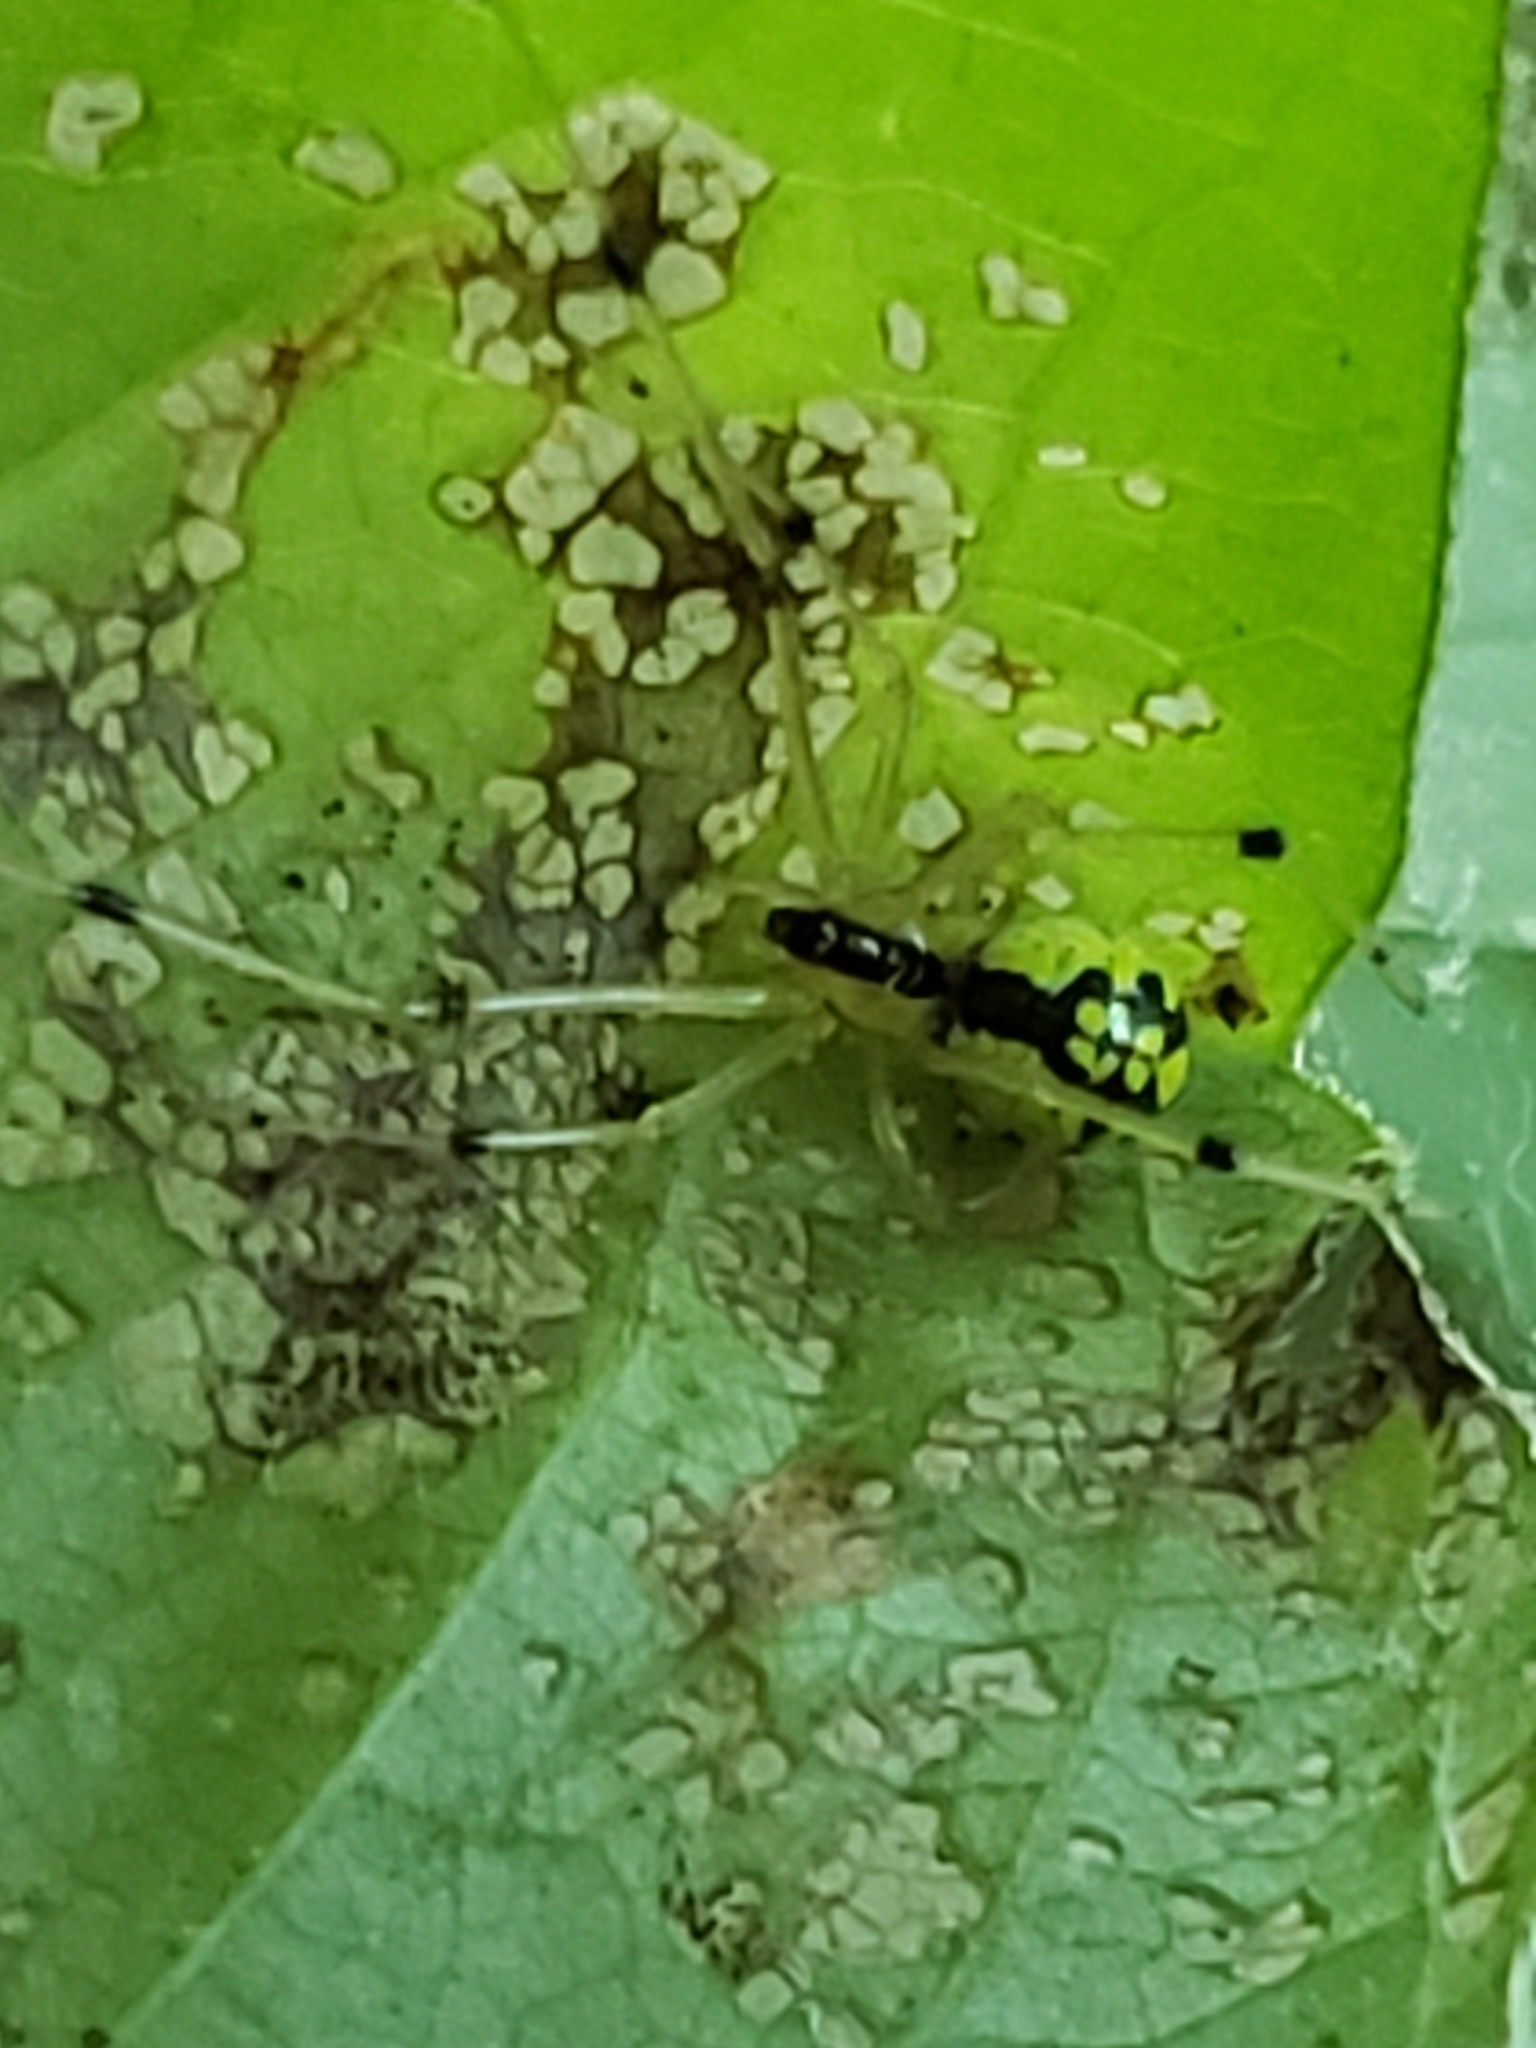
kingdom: Animalia
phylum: Arthropoda
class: Arachnida
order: Araneae
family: Theridiidae
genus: Phylloneta
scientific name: Phylloneta pictipes
